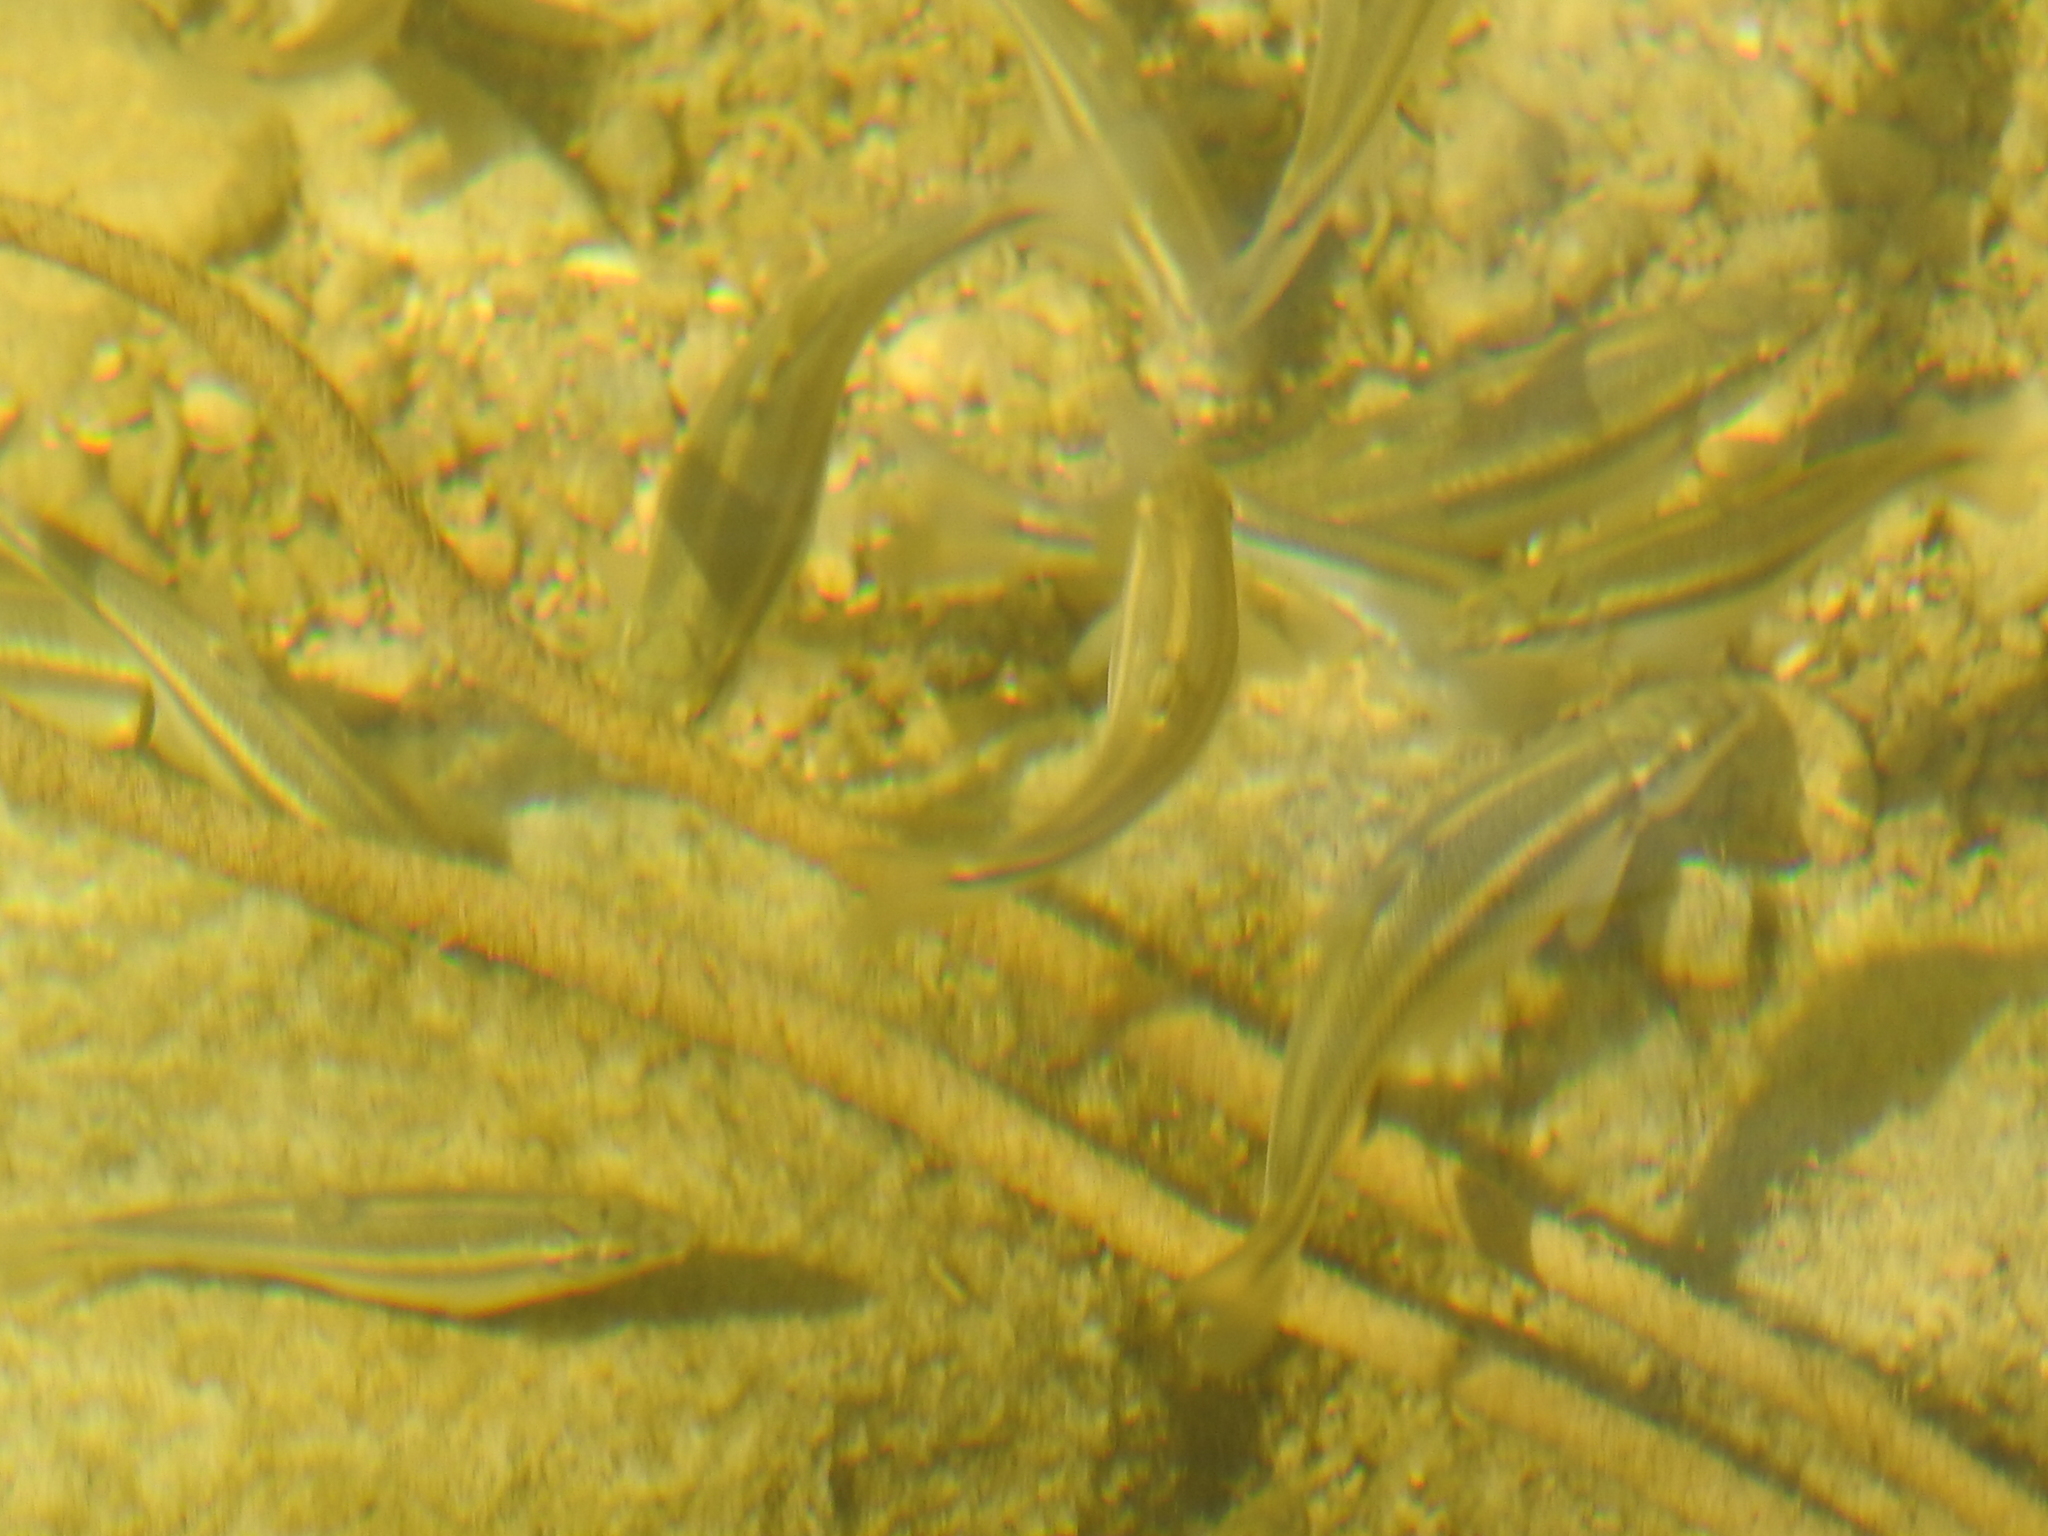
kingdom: Animalia
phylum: Chordata
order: Cypriniformes
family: Cyprinidae
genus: Campostoma
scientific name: Campostoma anomalum
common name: Central stoneroller
